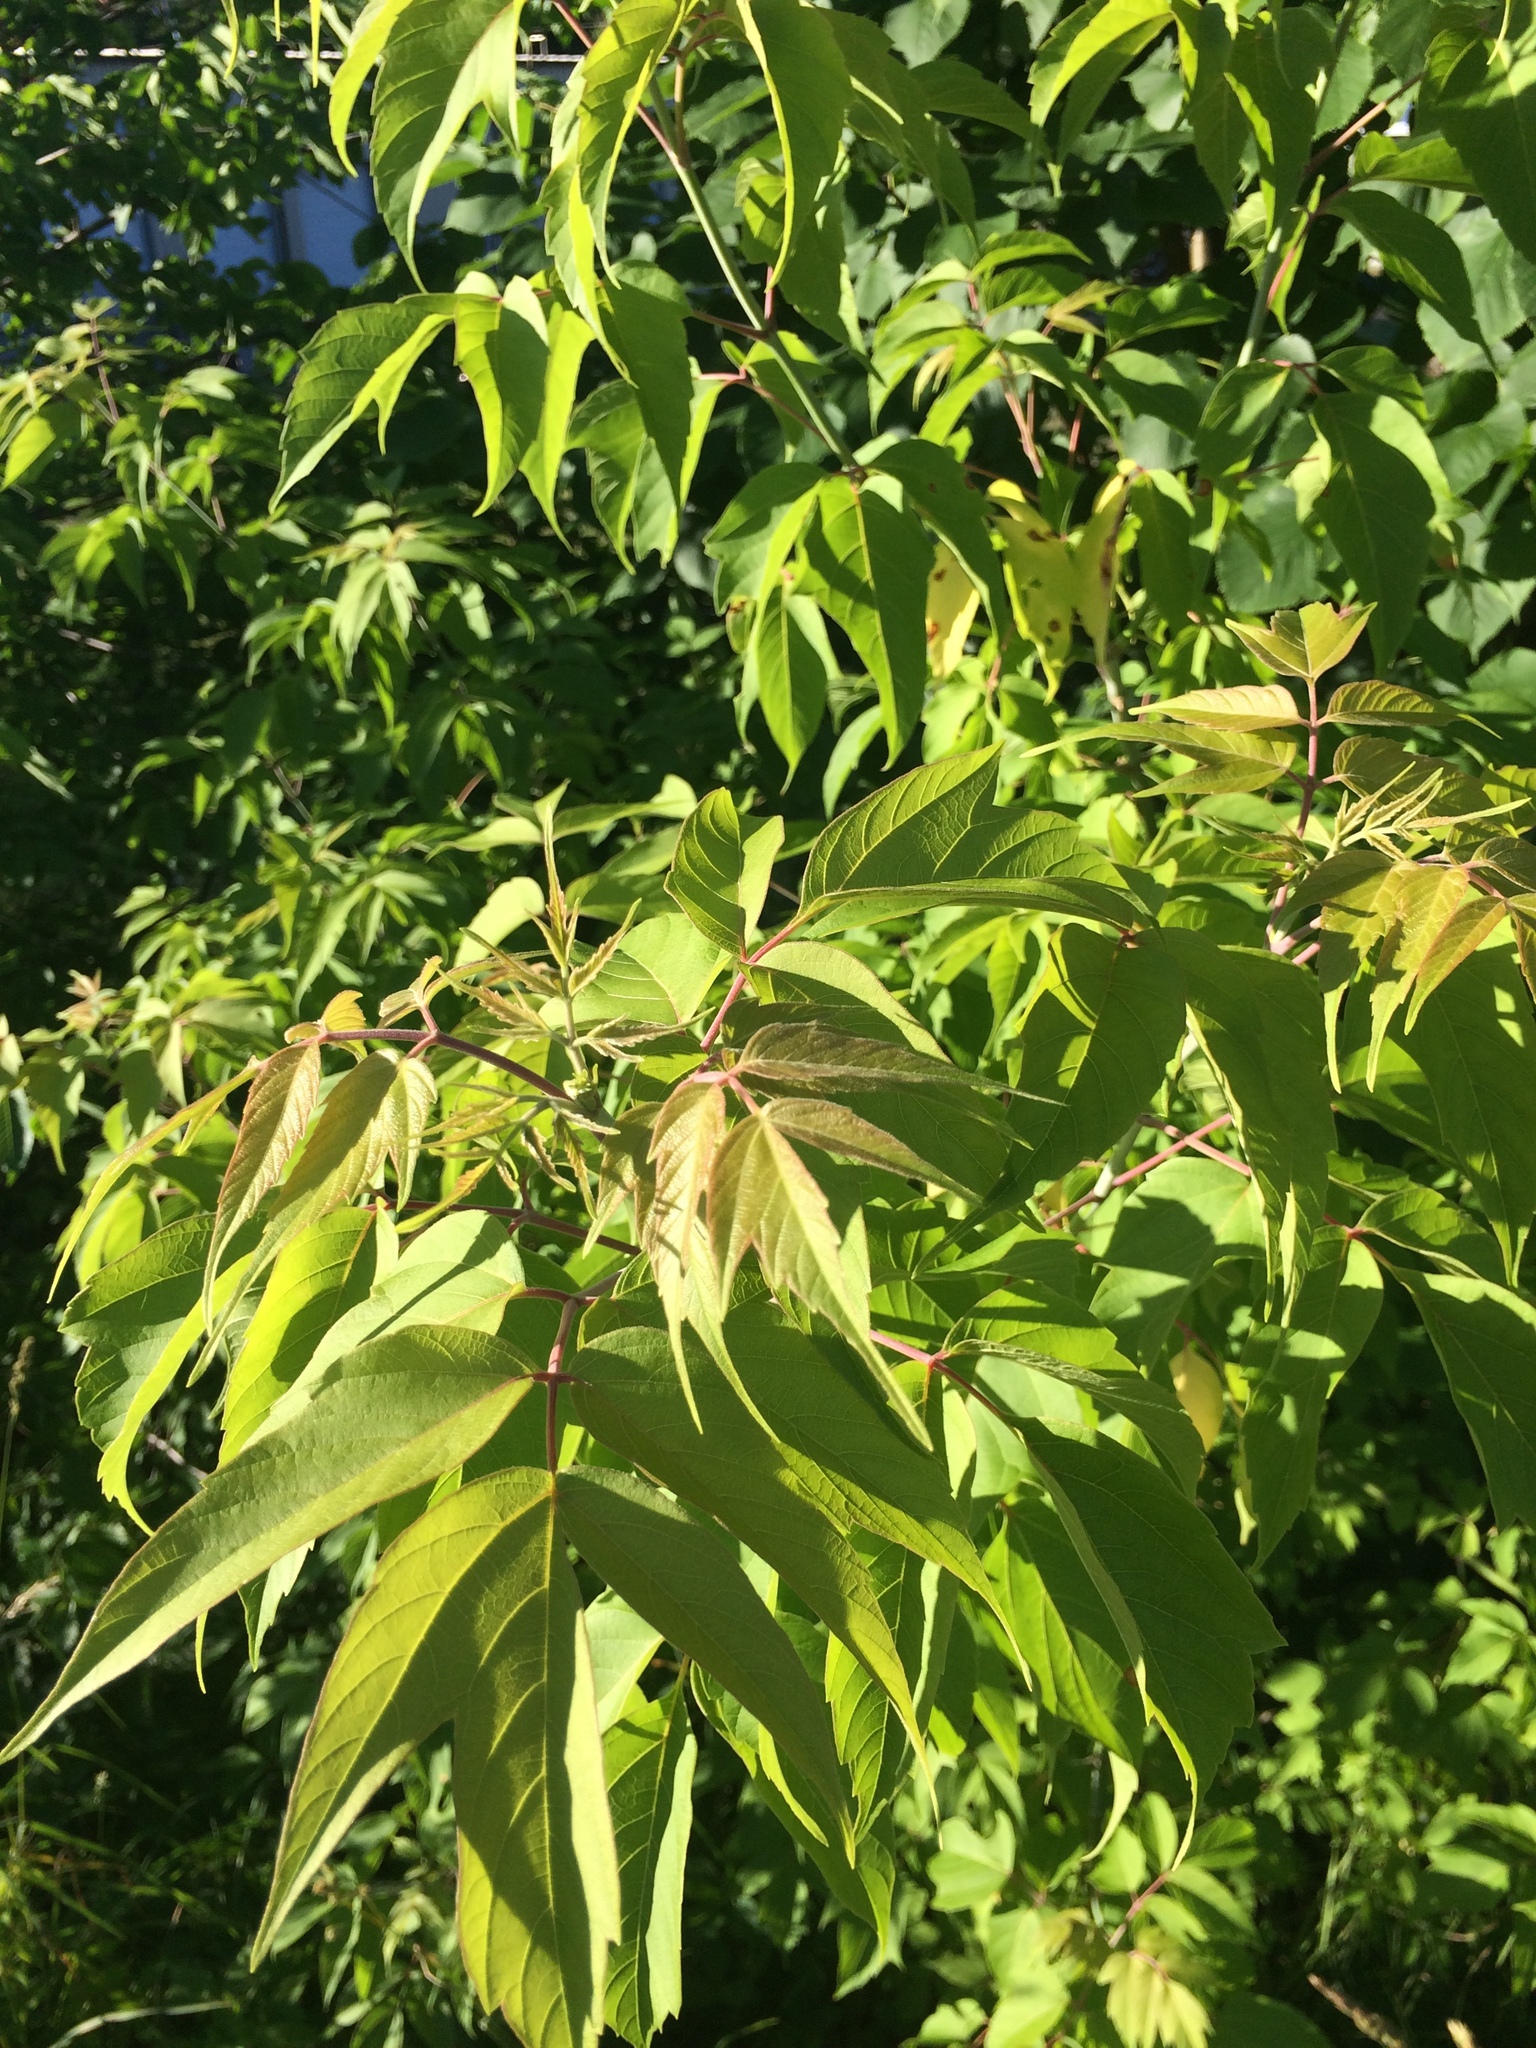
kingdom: Plantae
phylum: Tracheophyta
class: Magnoliopsida
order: Sapindales
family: Sapindaceae
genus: Acer
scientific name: Acer negundo
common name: Ashleaf maple
